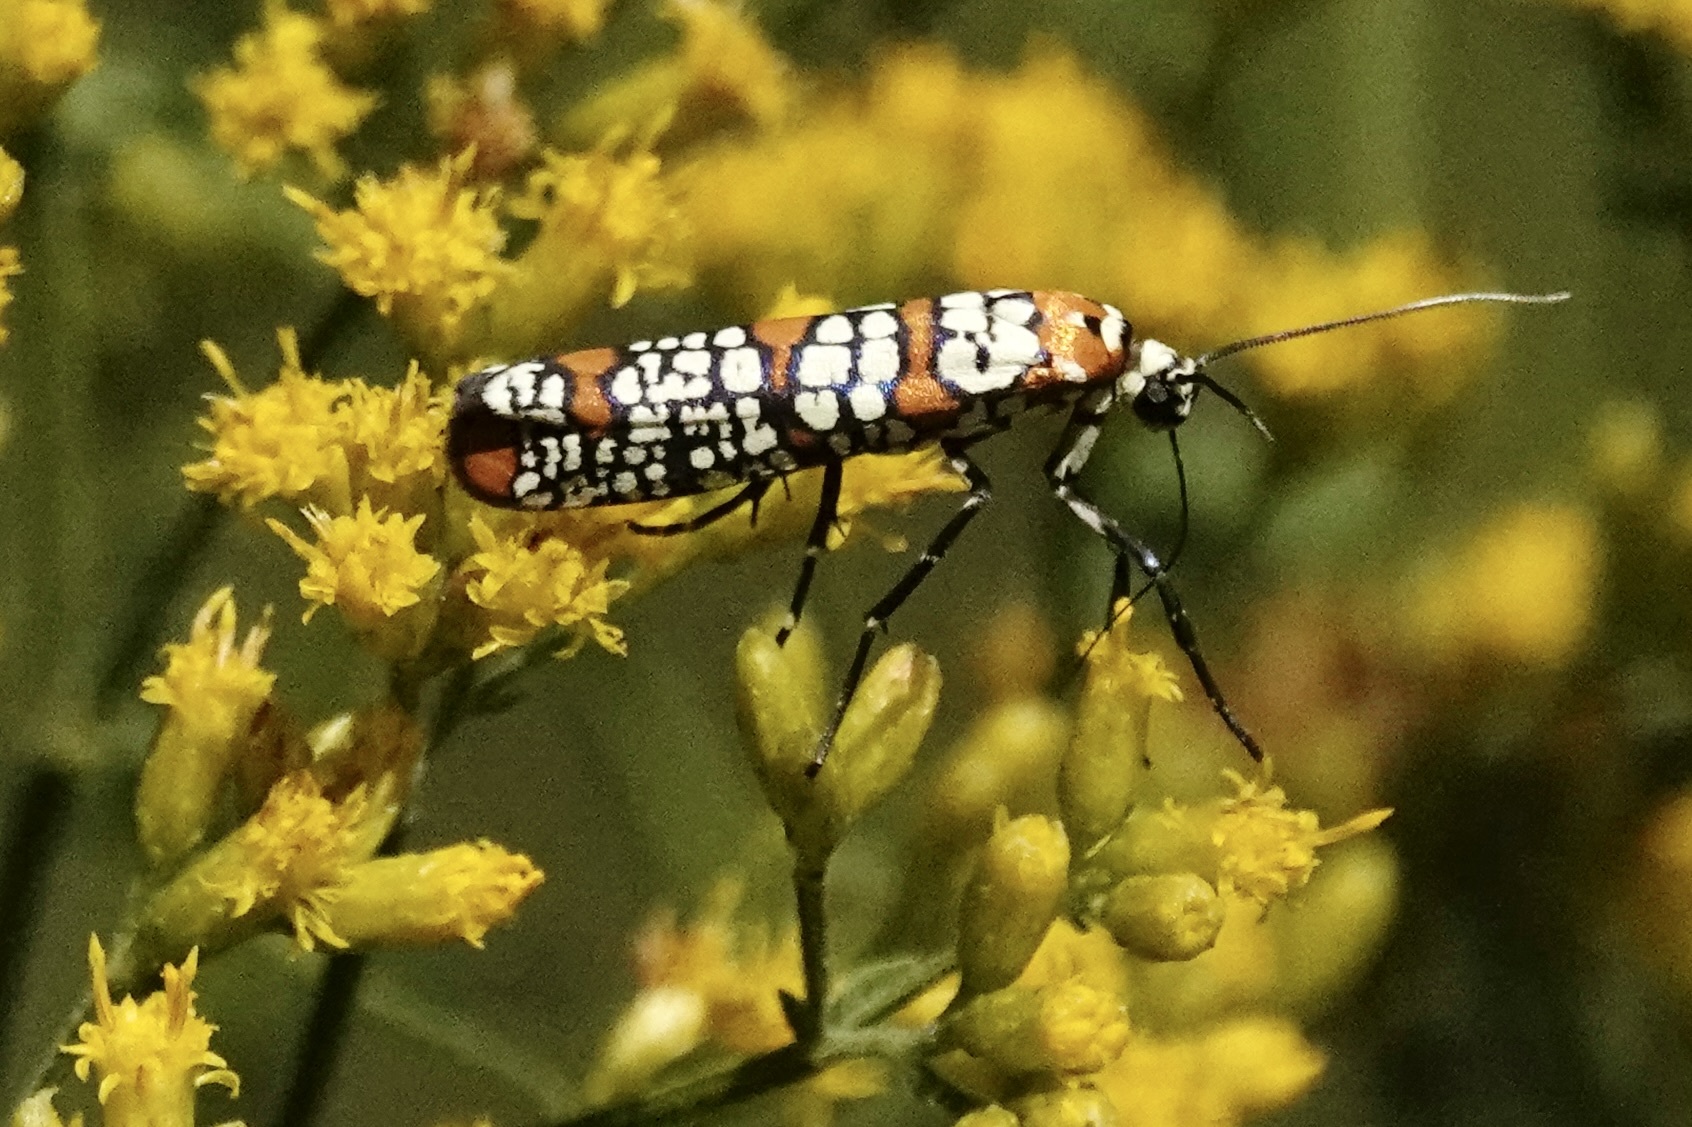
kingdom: Animalia
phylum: Arthropoda
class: Insecta
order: Lepidoptera
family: Attevidae
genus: Atteva
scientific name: Atteva punctella
